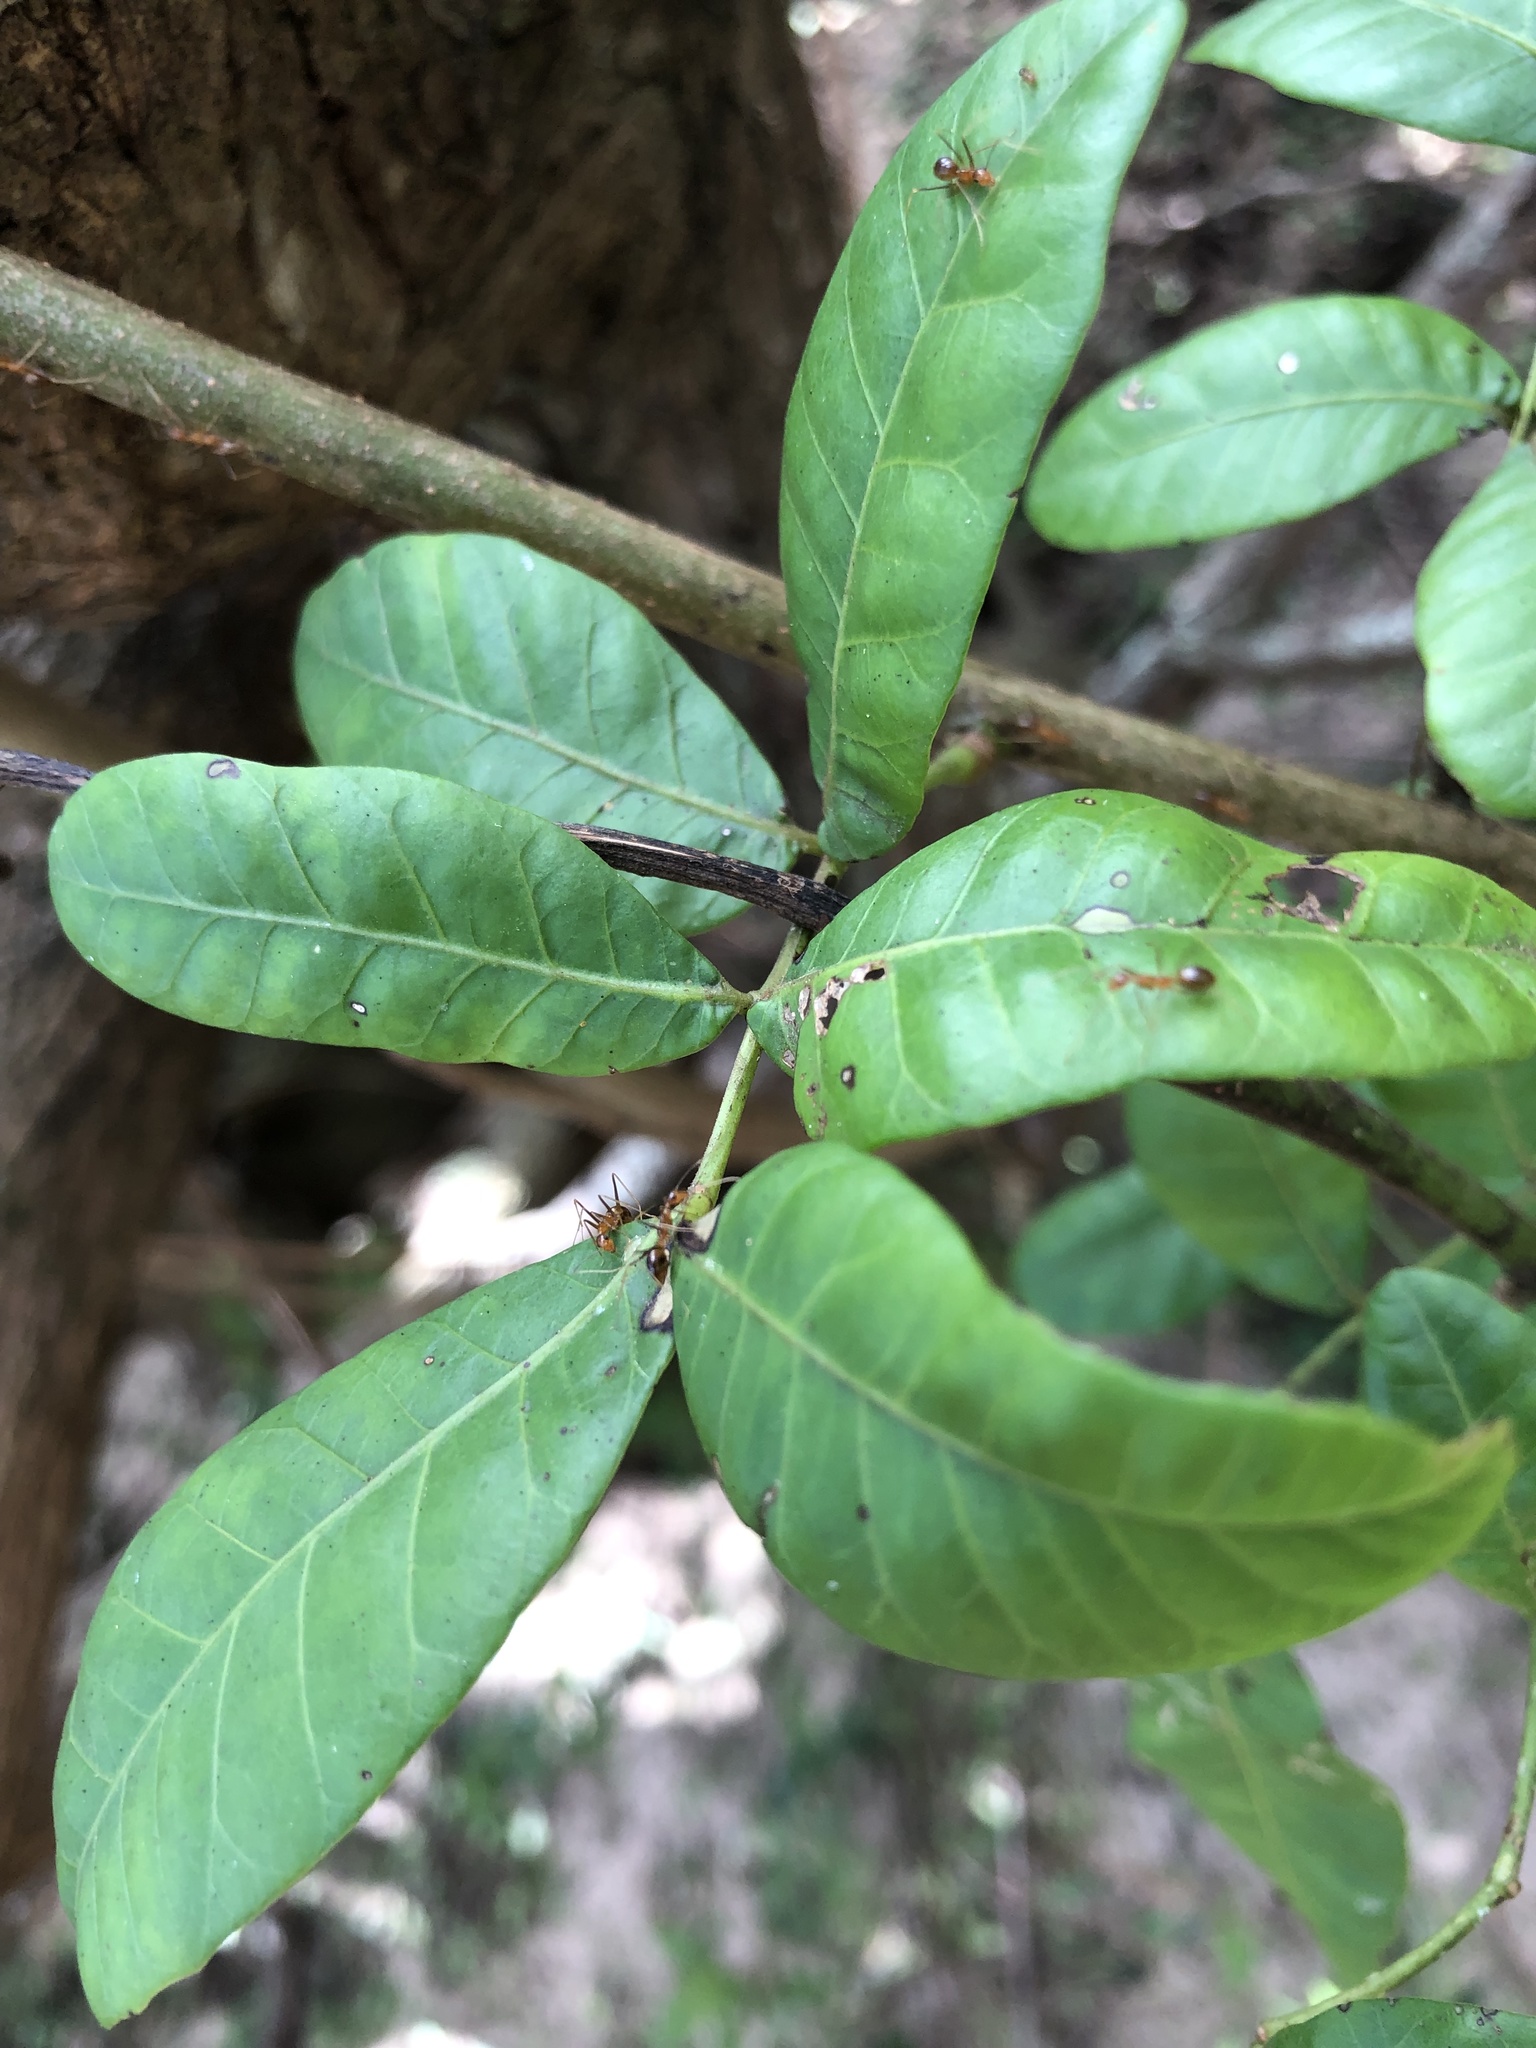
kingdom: Animalia
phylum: Arthropoda
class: Insecta
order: Hymenoptera
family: Formicidae
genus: Anoplolepis
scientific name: Anoplolepis gracilipes
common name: Ant
